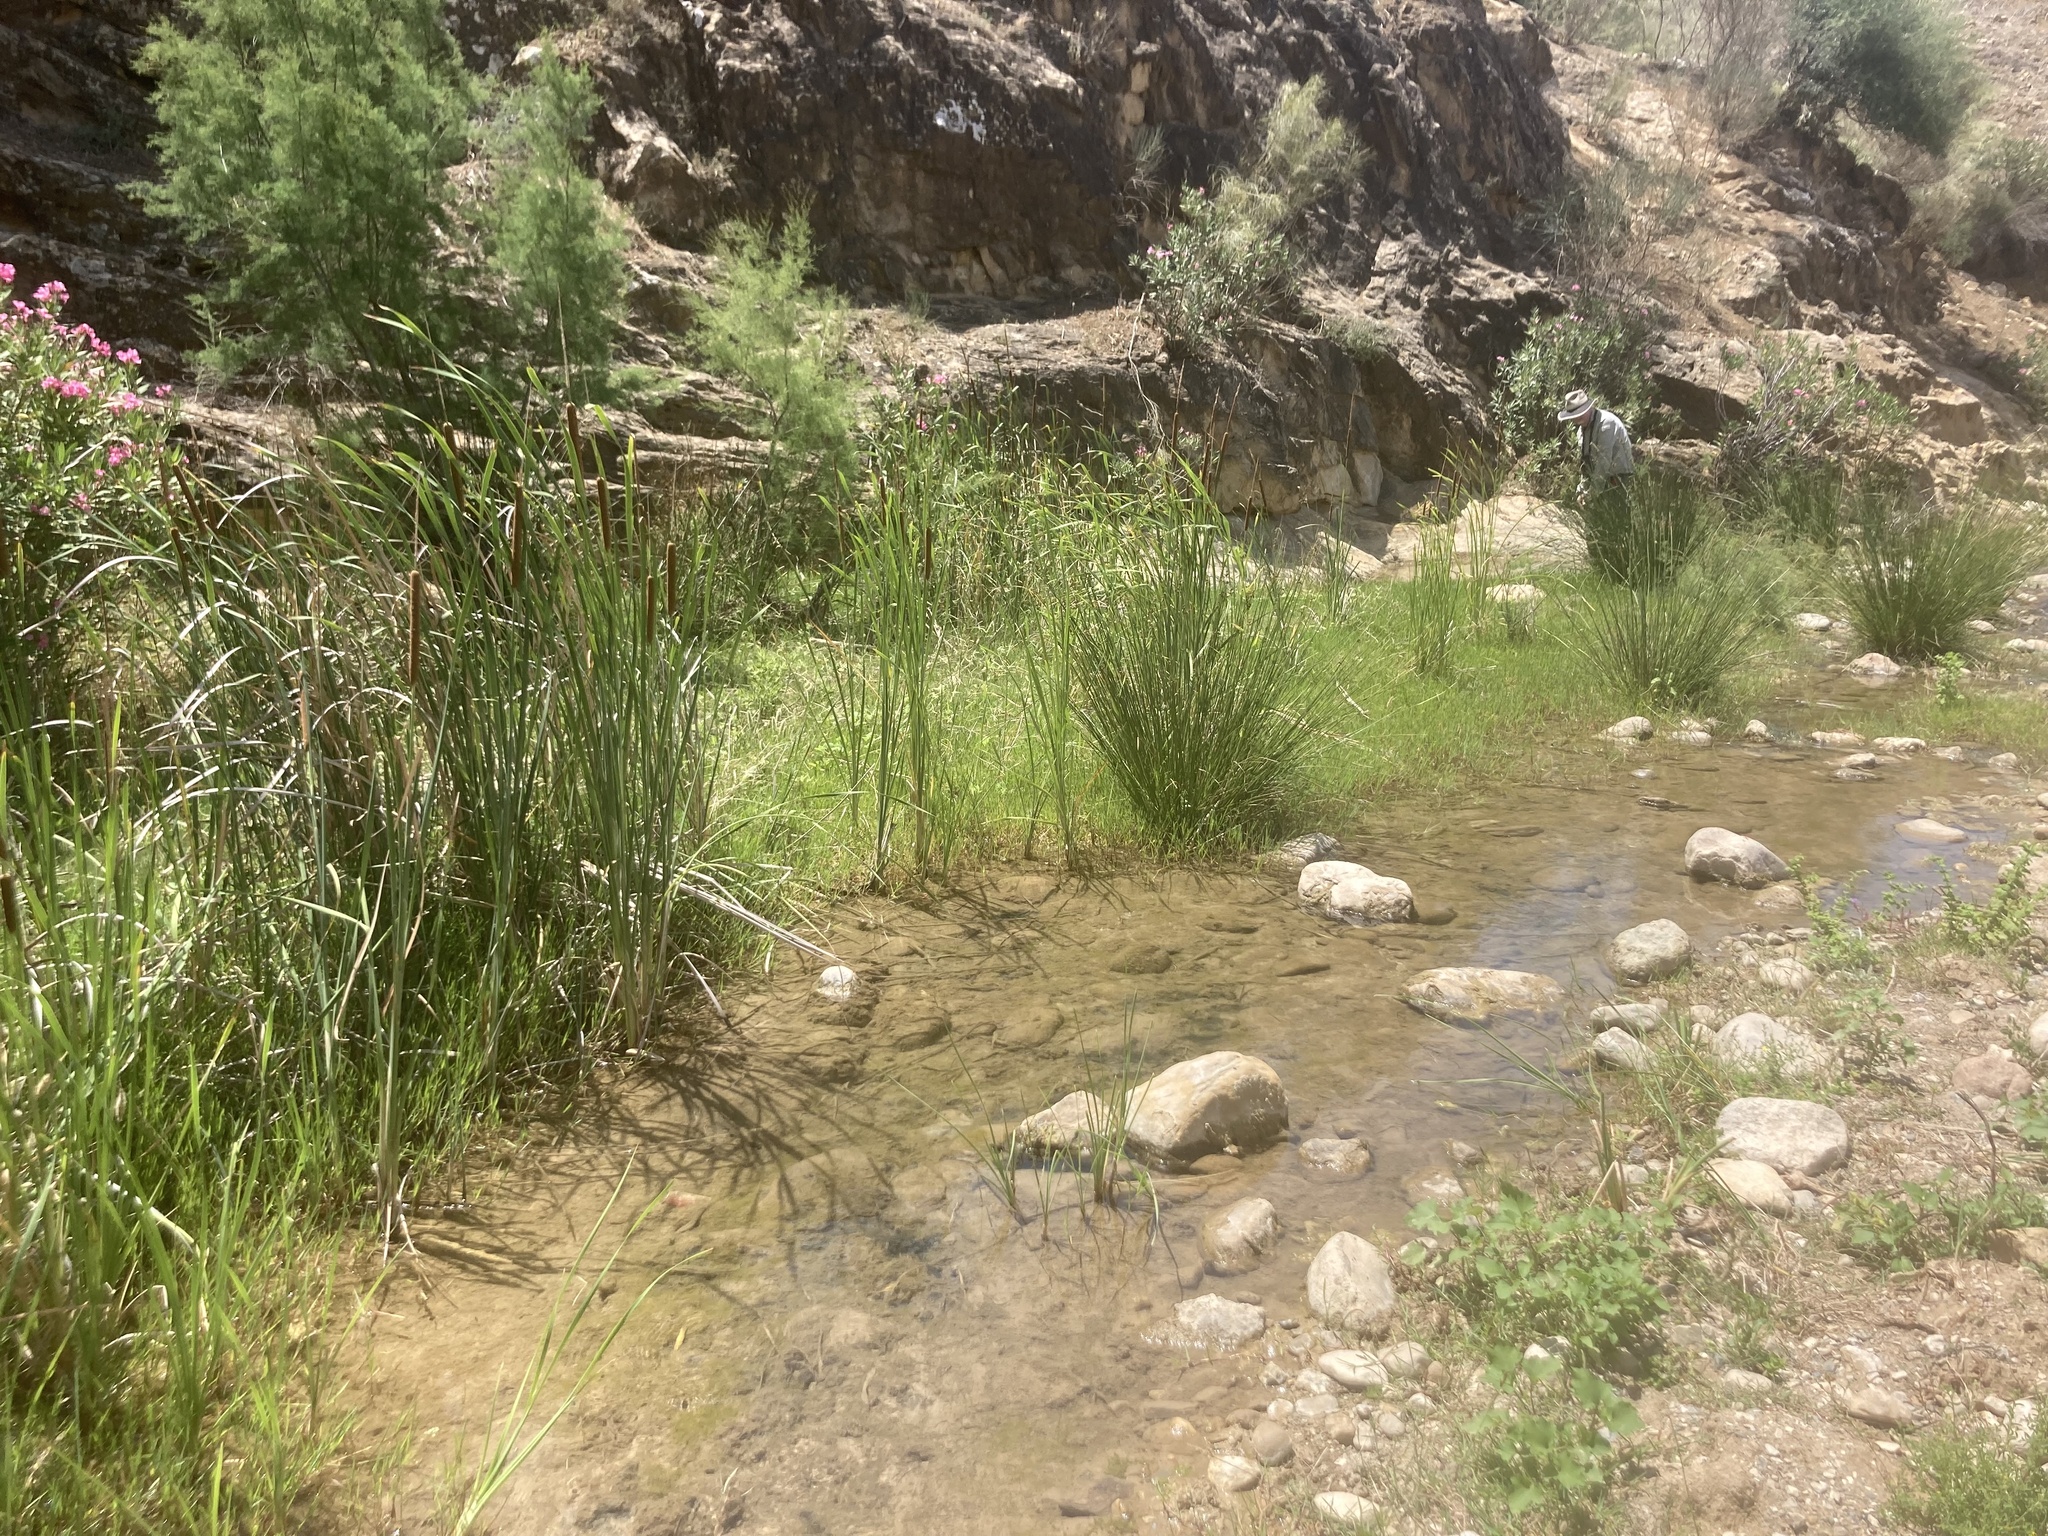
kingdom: Plantae
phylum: Tracheophyta
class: Liliopsida
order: Poales
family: Cyperaceae
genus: Scirpoides
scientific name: Scirpoides holoschoenus
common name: Round-headed club-rush
